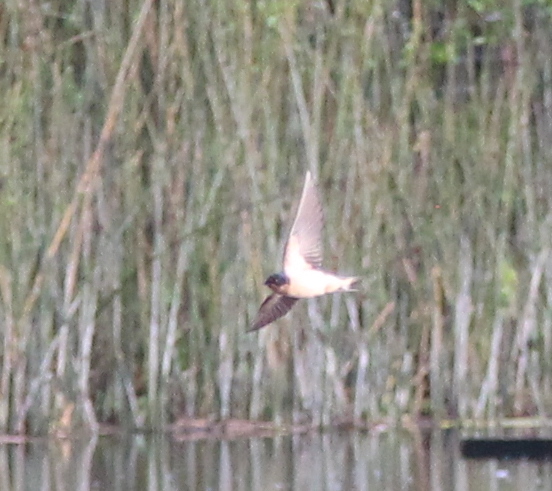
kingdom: Animalia
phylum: Chordata
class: Aves
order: Passeriformes
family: Hirundinidae
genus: Hirundo
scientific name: Hirundo rustica
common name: Barn swallow
